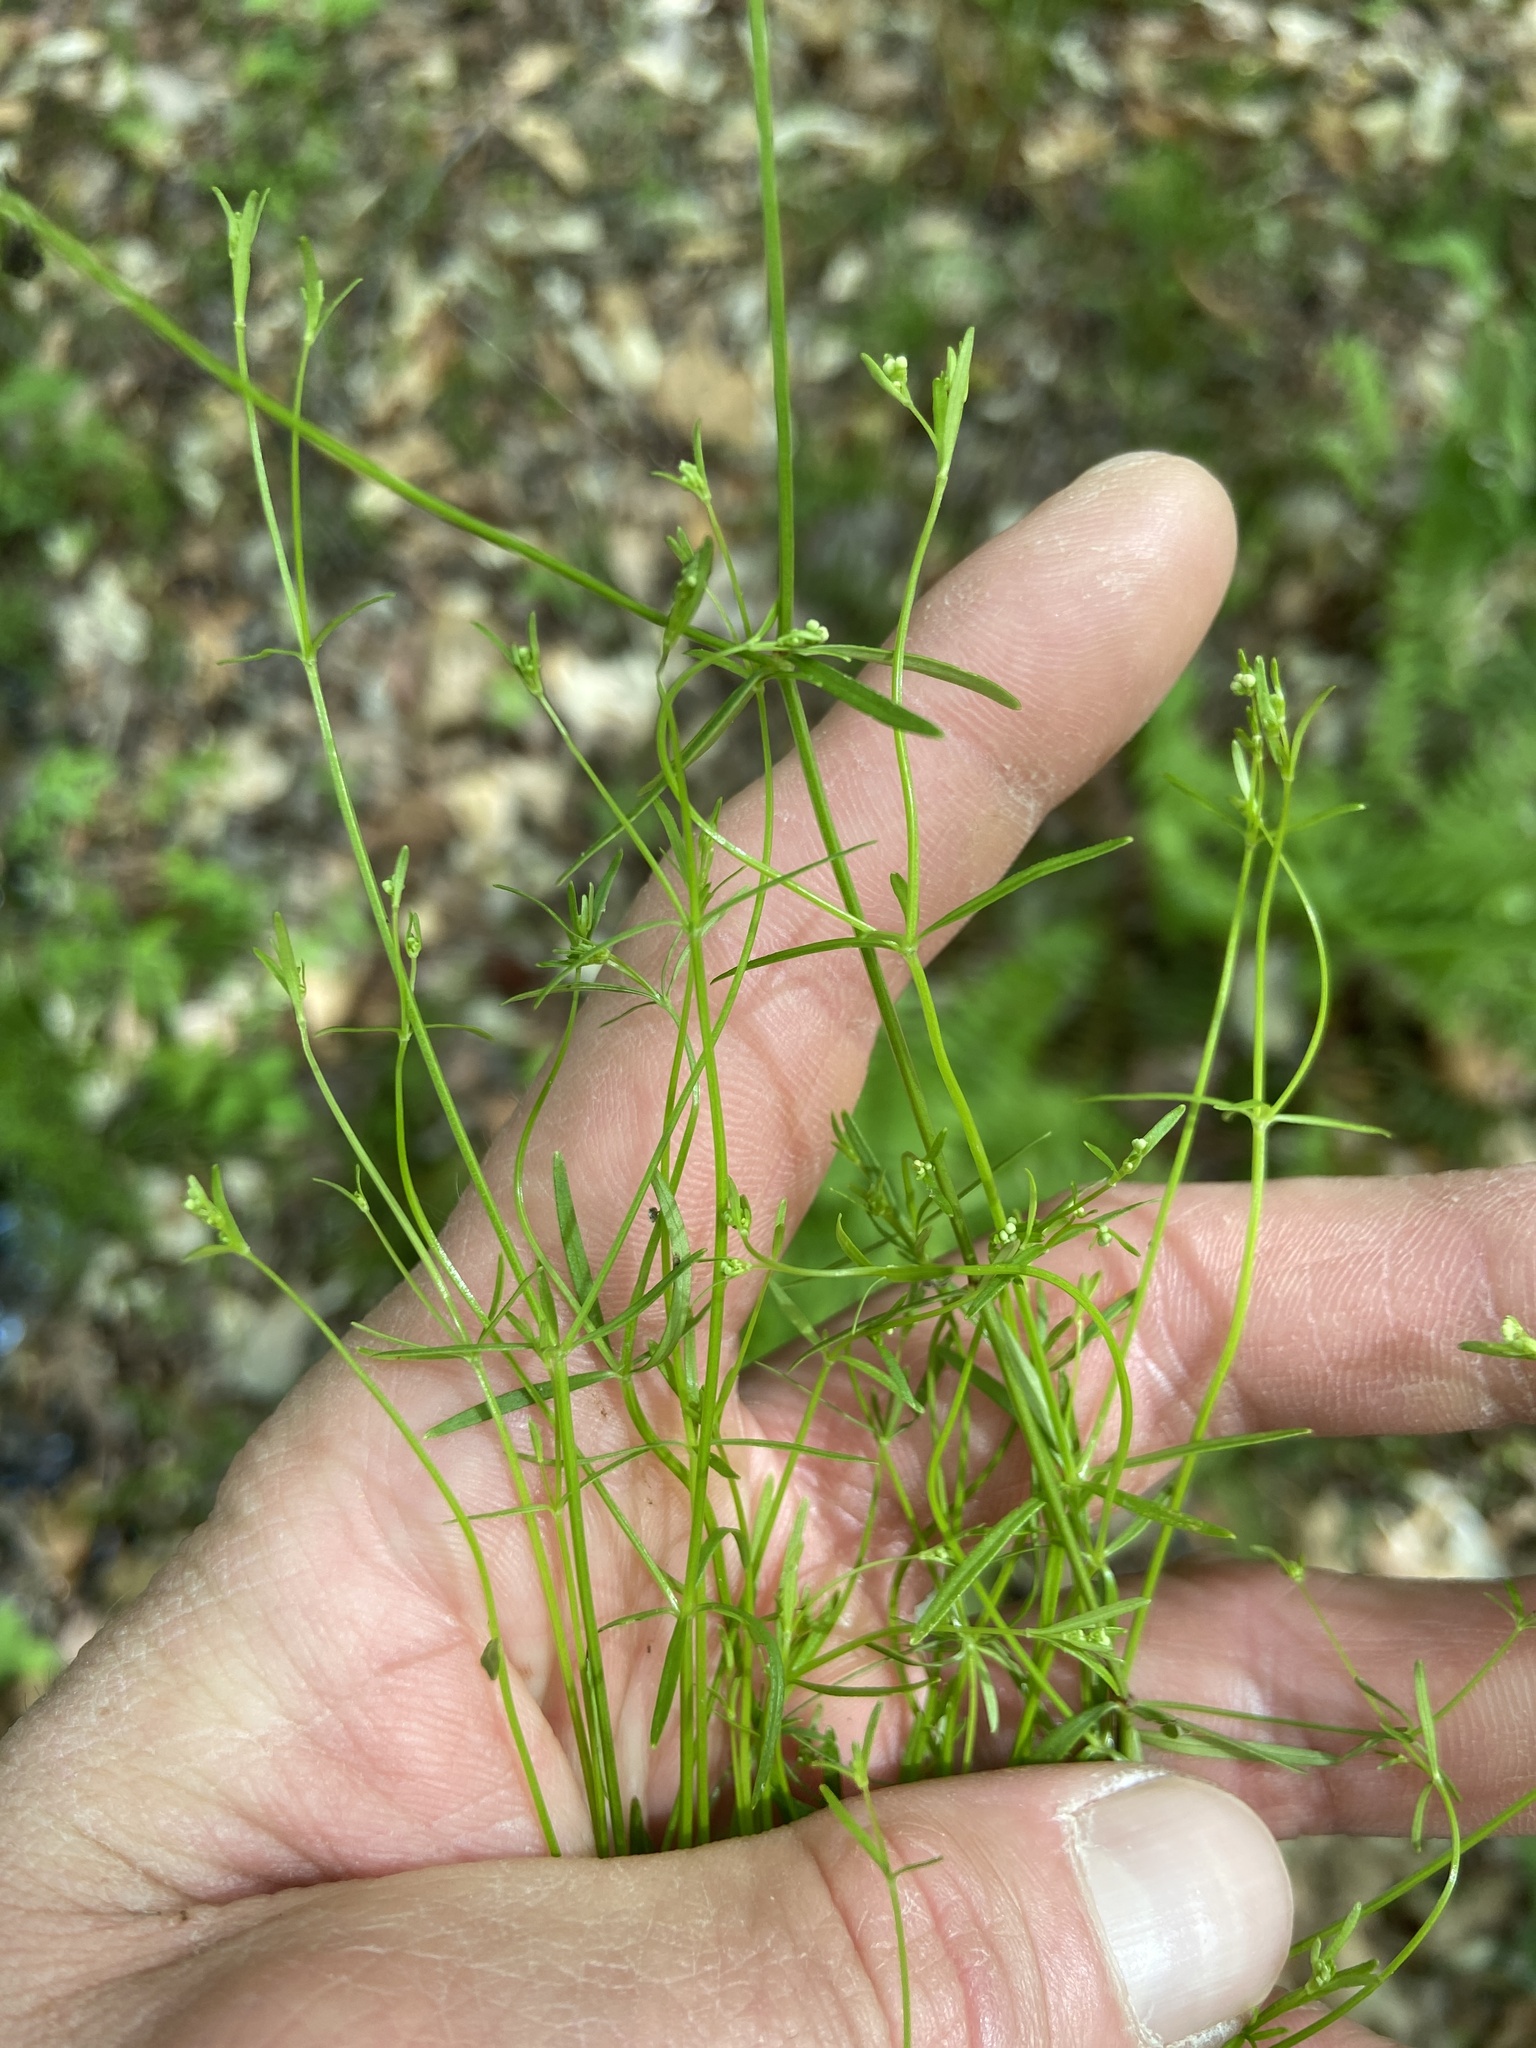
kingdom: Plantae
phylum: Tracheophyta
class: Magnoliopsida
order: Gentianales
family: Rubiaceae
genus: Galium
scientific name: Galium obtusum
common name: Blunt-leaved bedstraw
